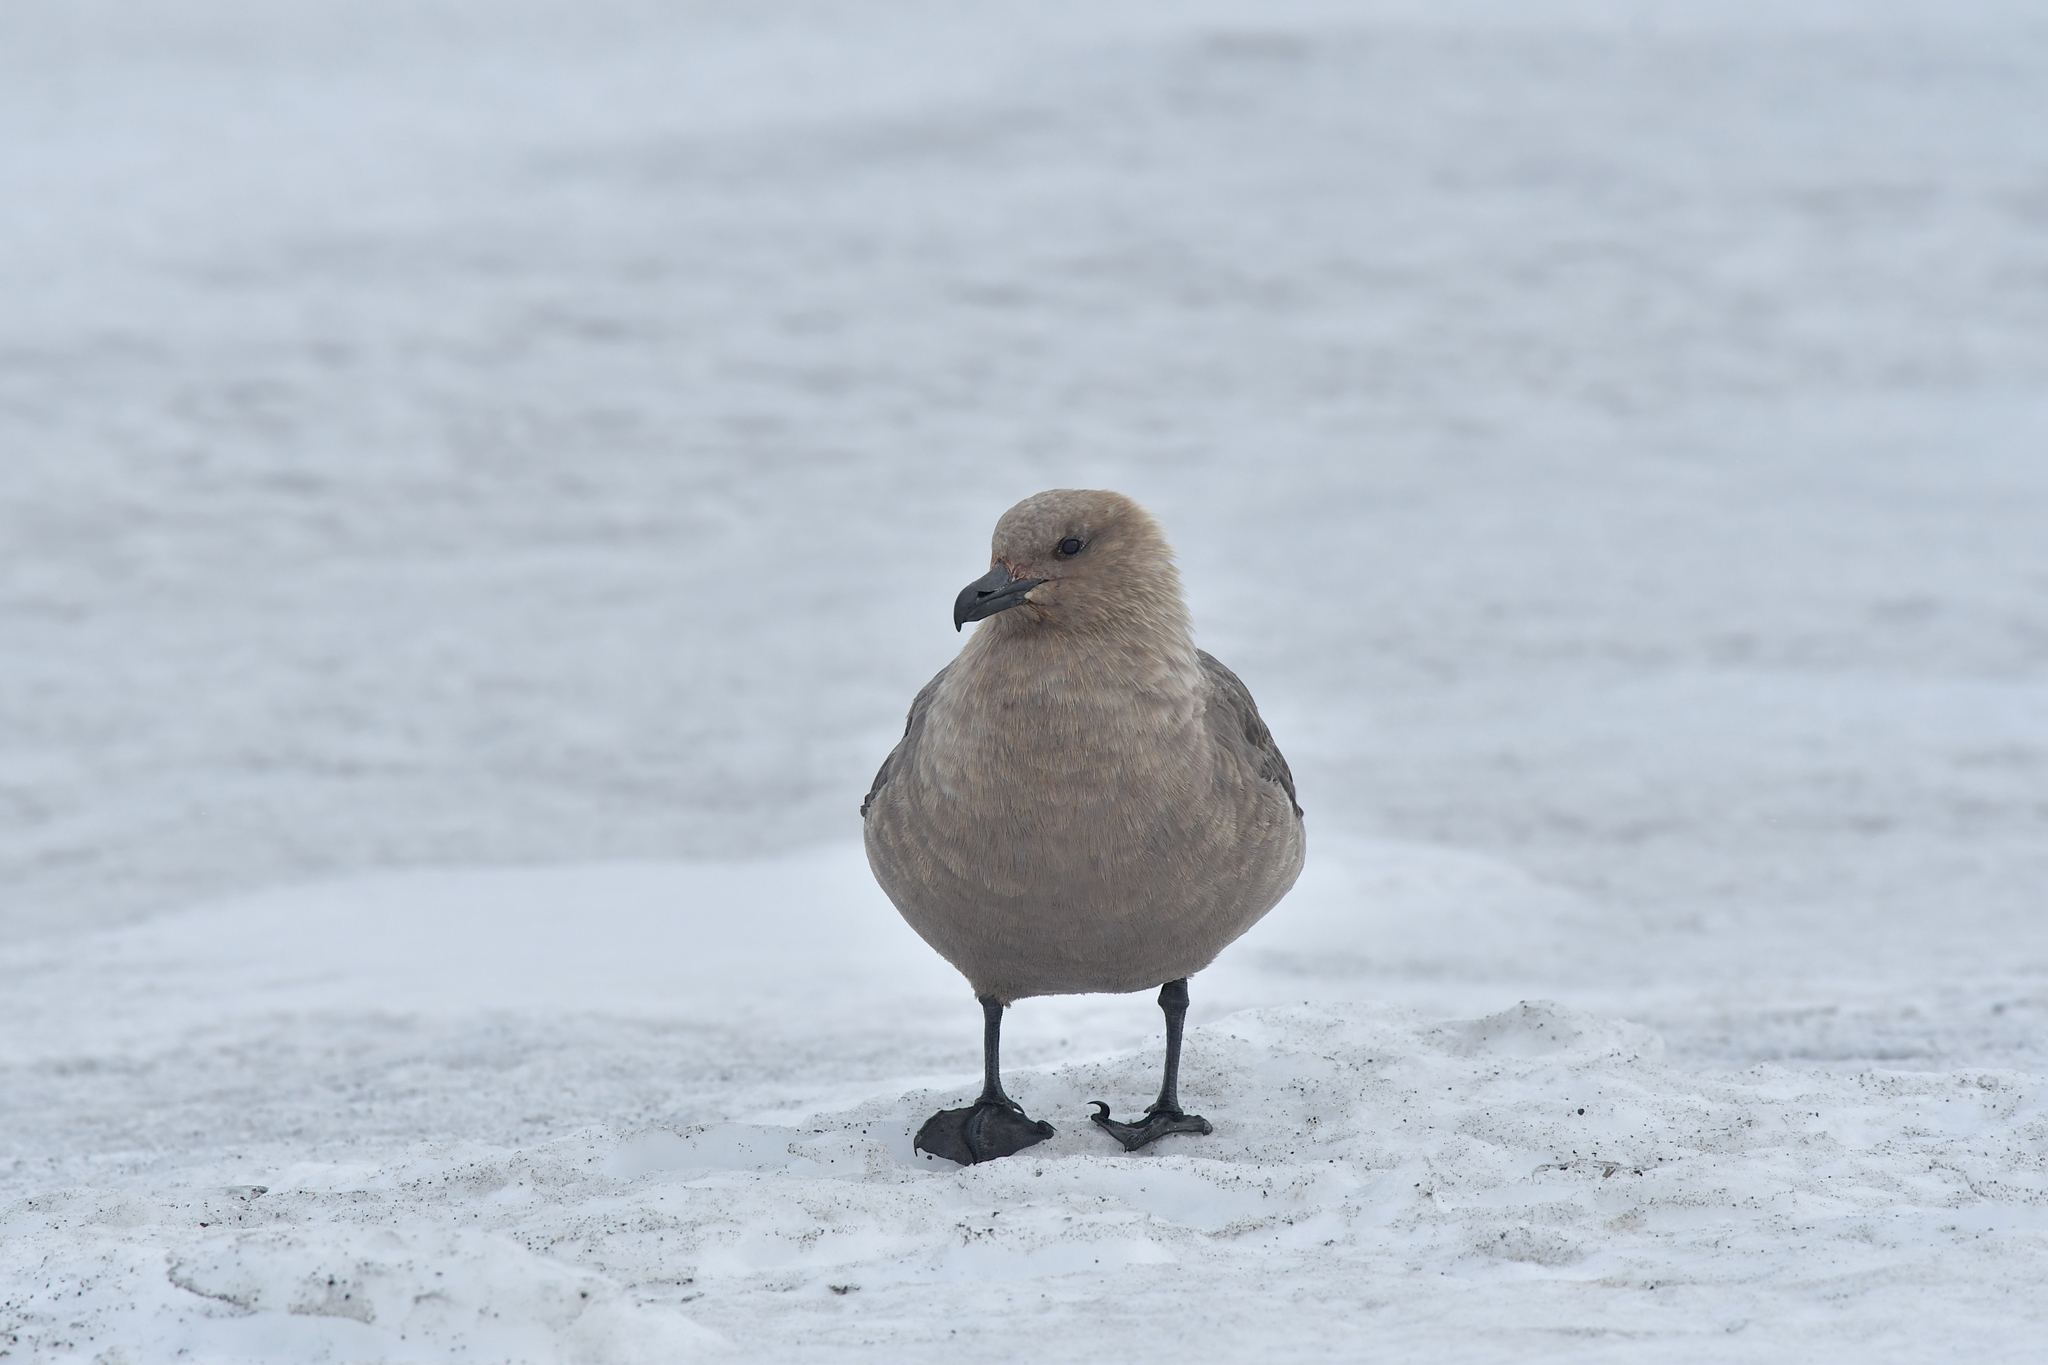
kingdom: Animalia
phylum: Chordata
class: Aves
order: Charadriiformes
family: Stercorariidae
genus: Stercorarius
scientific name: Stercorarius maccormicki
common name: South polar skua
